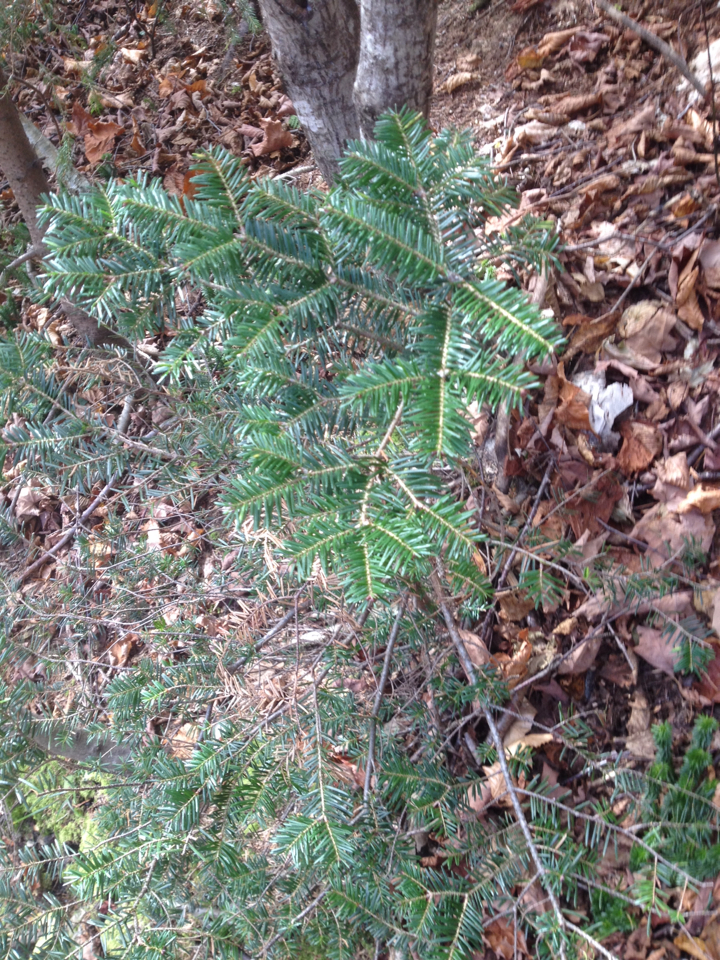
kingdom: Plantae
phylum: Tracheophyta
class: Pinopsida
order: Pinales
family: Pinaceae
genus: Abies
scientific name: Abies balsamea
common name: Balsam fir
